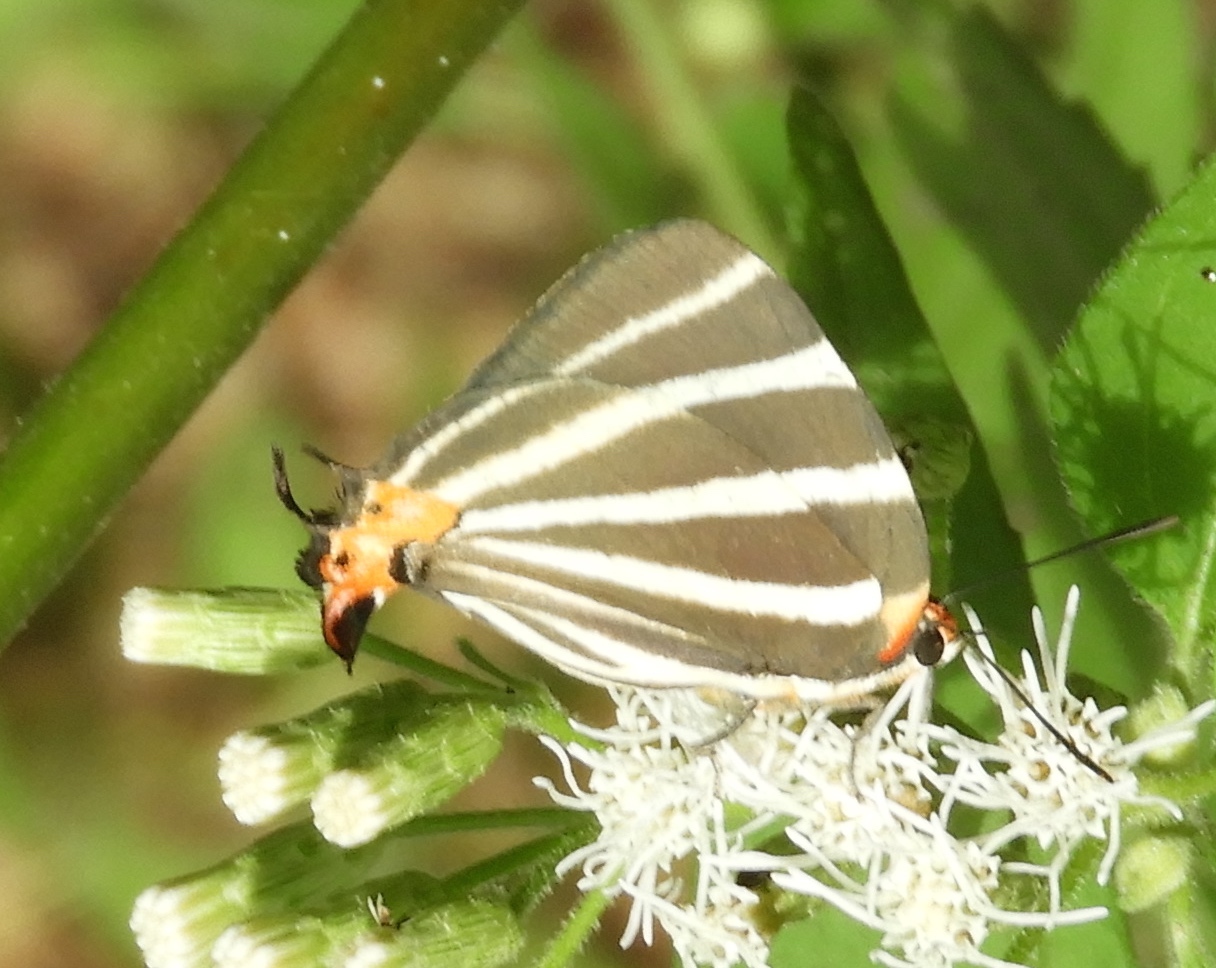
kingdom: Animalia
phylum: Arthropoda
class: Insecta
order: Lepidoptera
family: Lycaenidae
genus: Thecla
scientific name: Thecla bathildis
